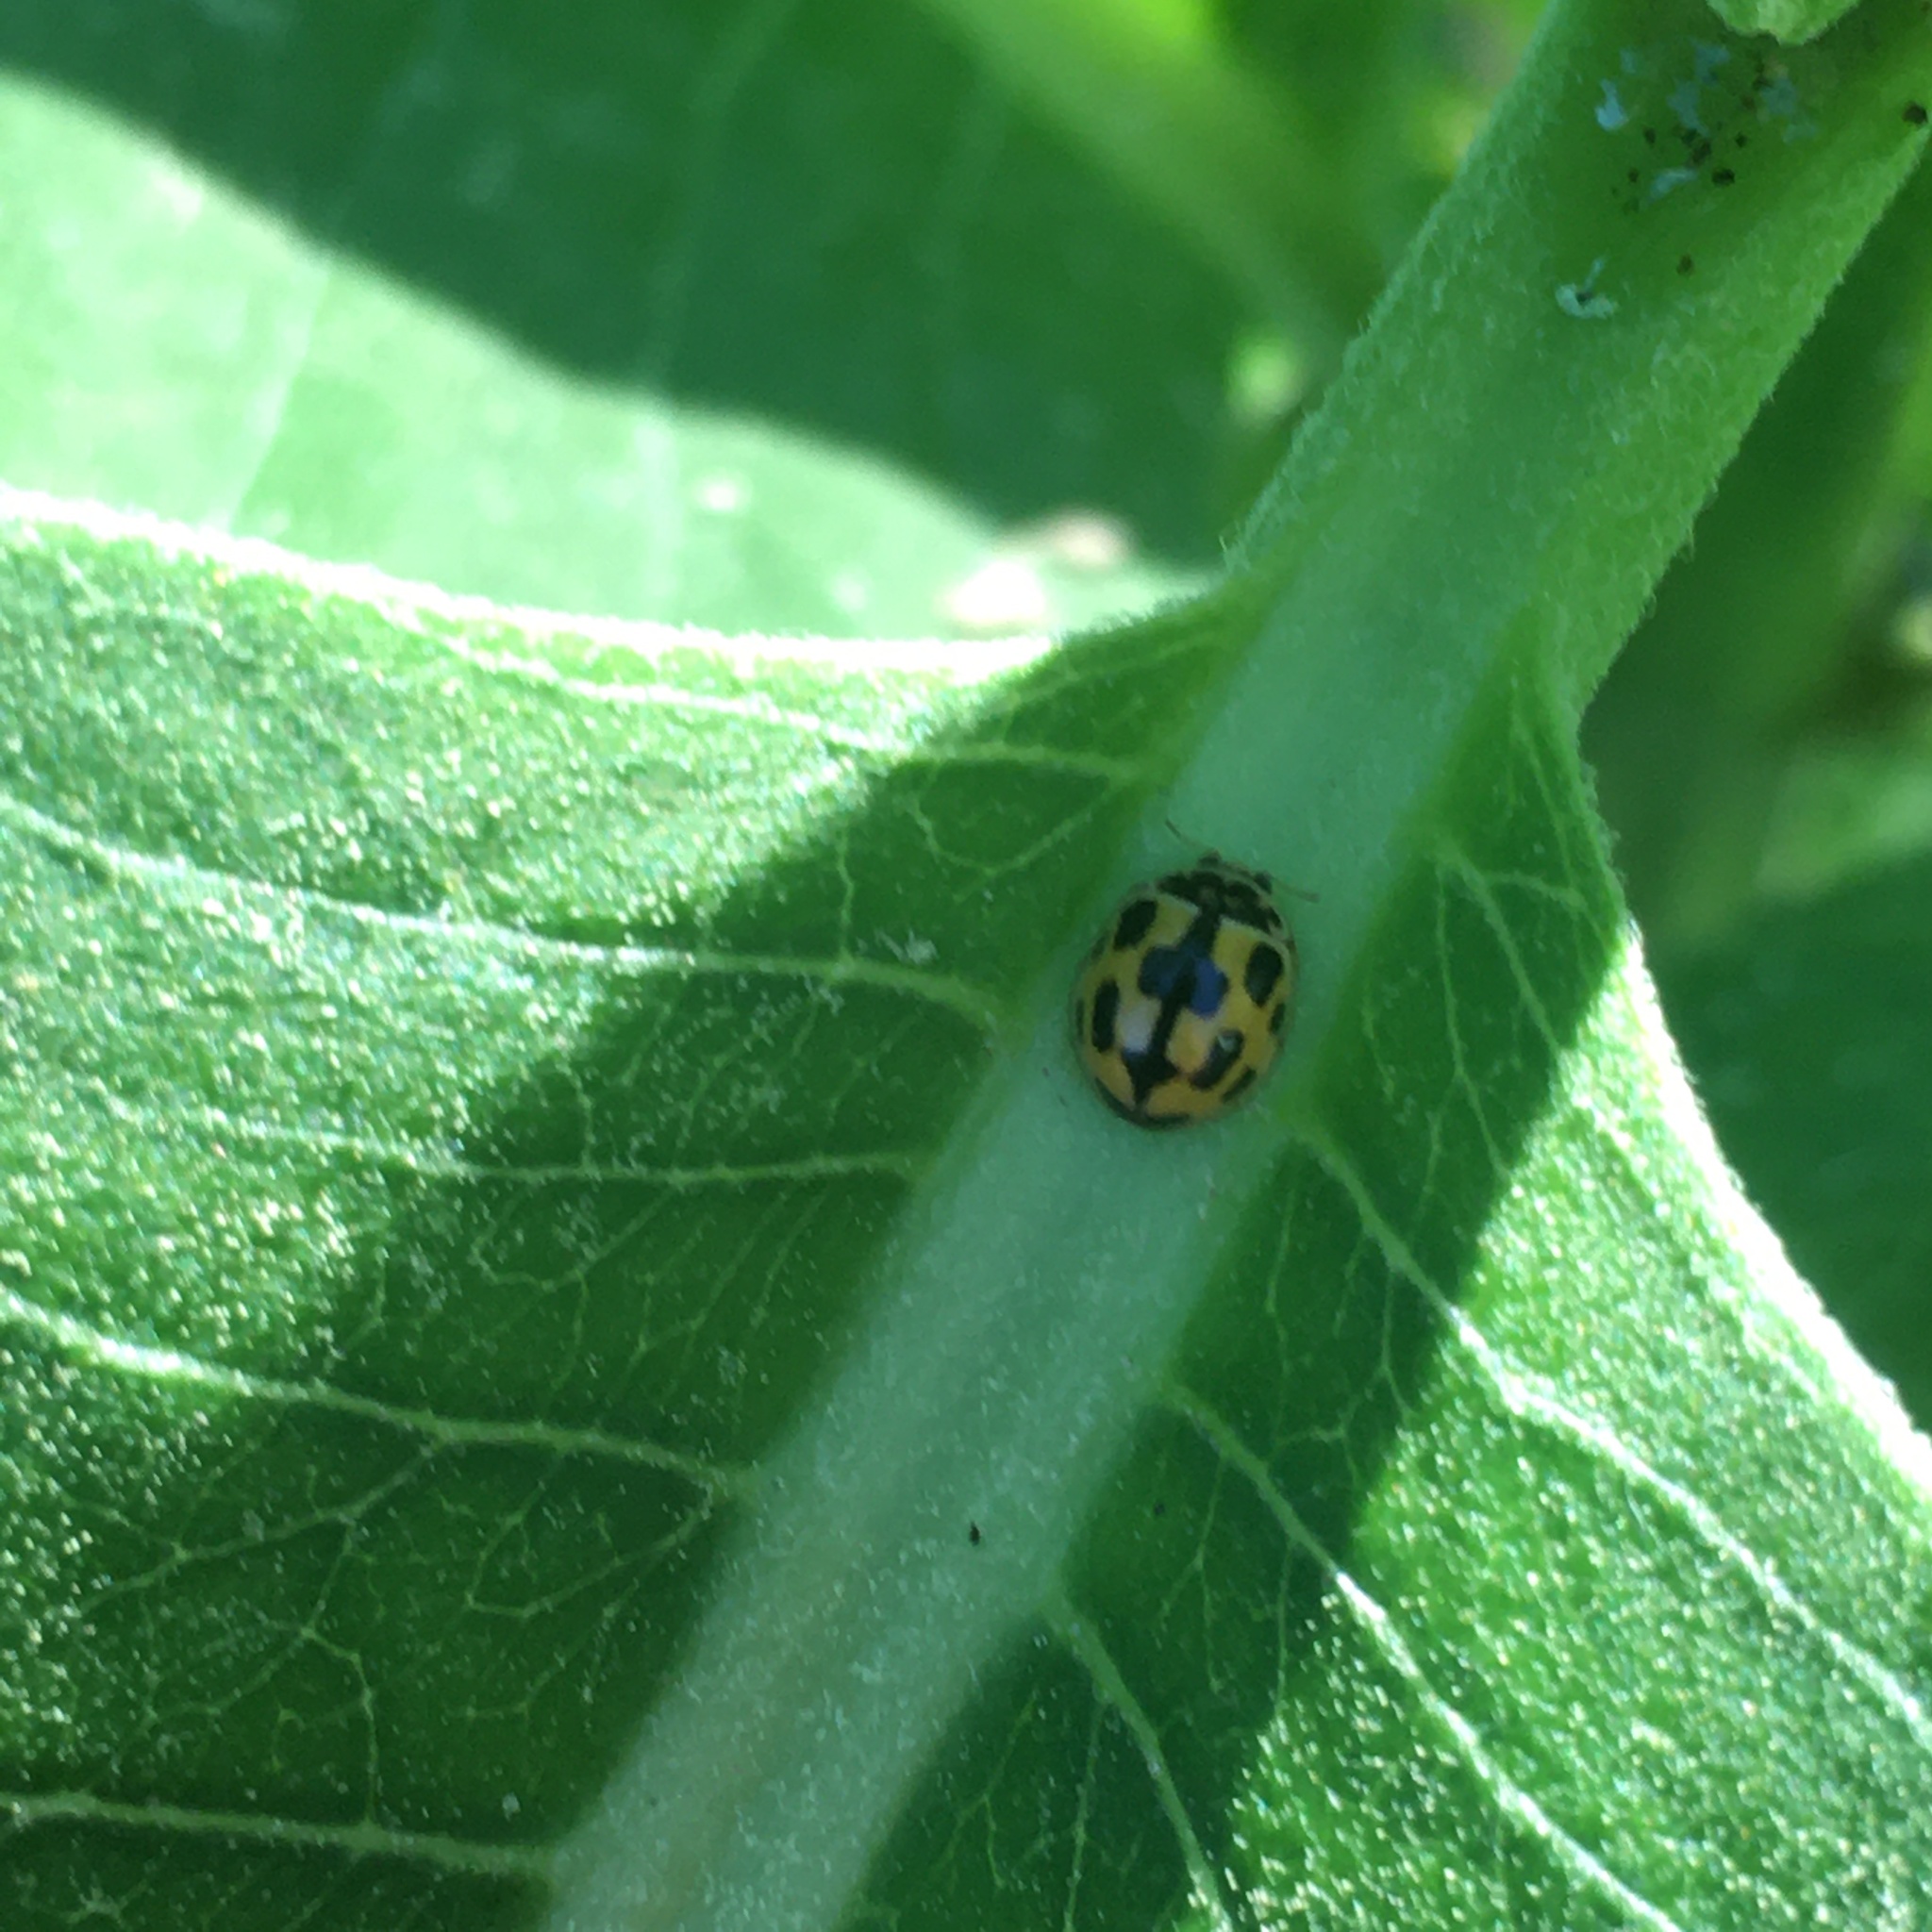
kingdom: Animalia
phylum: Arthropoda
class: Insecta
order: Coleoptera
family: Coccinellidae
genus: Propylaea
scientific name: Propylaea quatuordecimpunctata
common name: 14-spotted ladybird beetle
